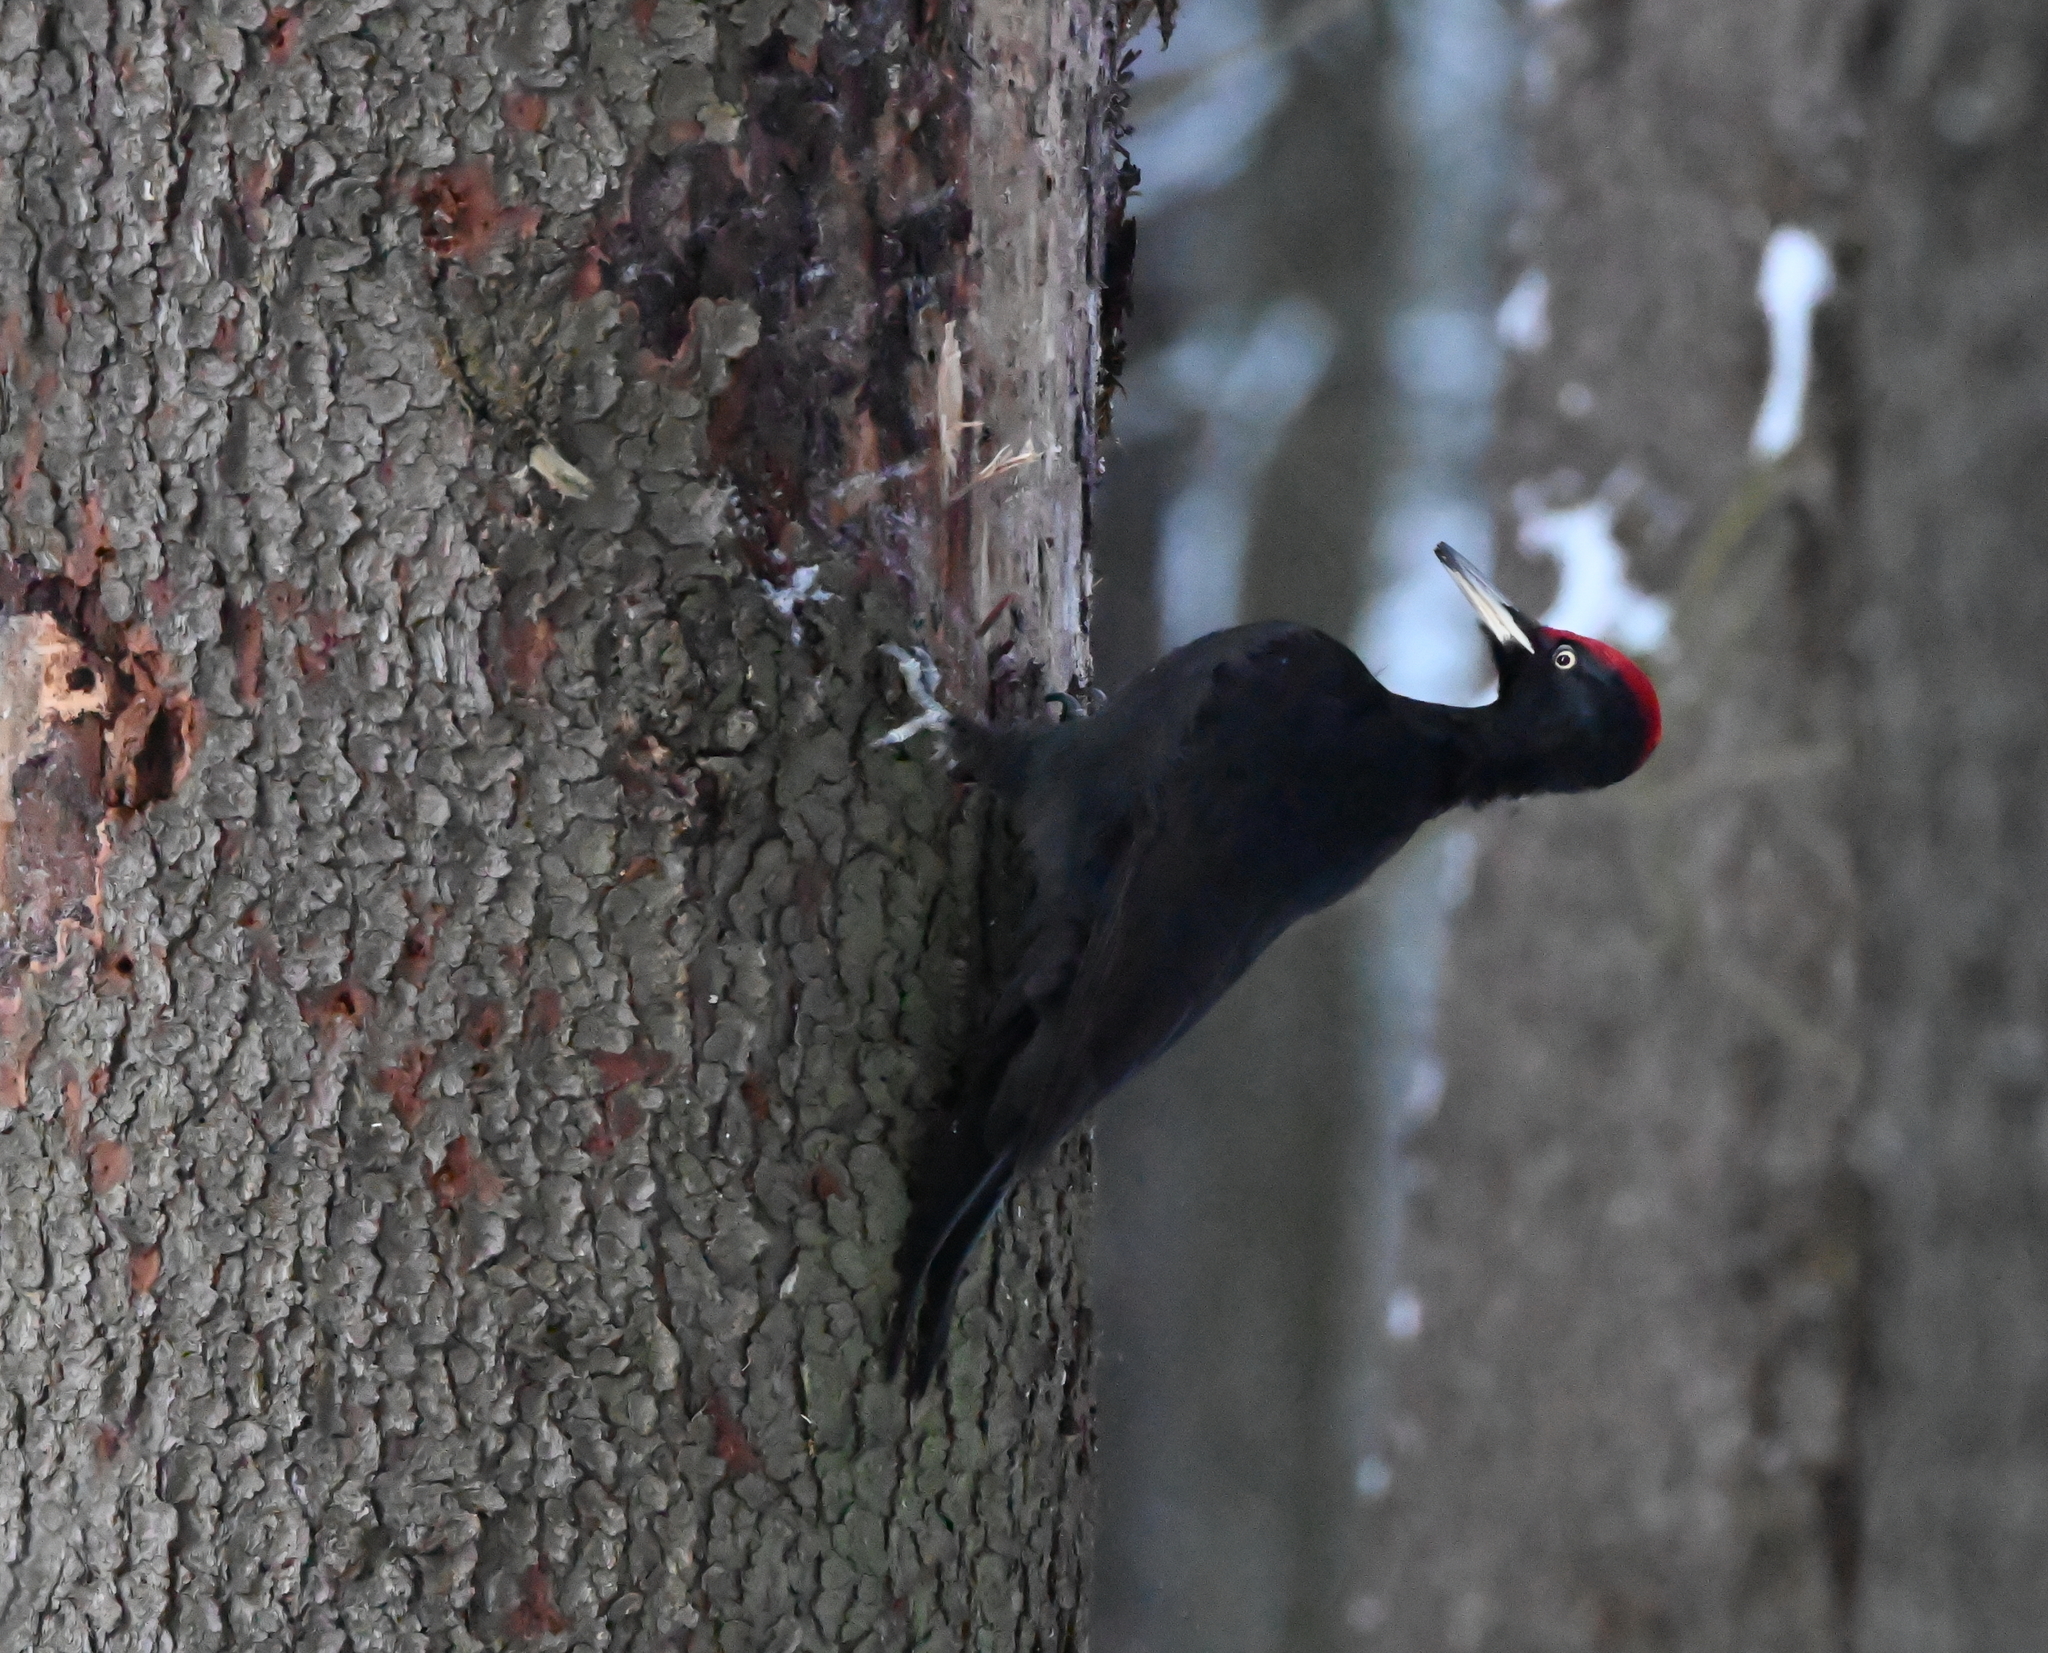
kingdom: Animalia
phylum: Chordata
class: Aves
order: Piciformes
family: Picidae
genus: Dryocopus
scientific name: Dryocopus martius
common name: Black woodpecker
